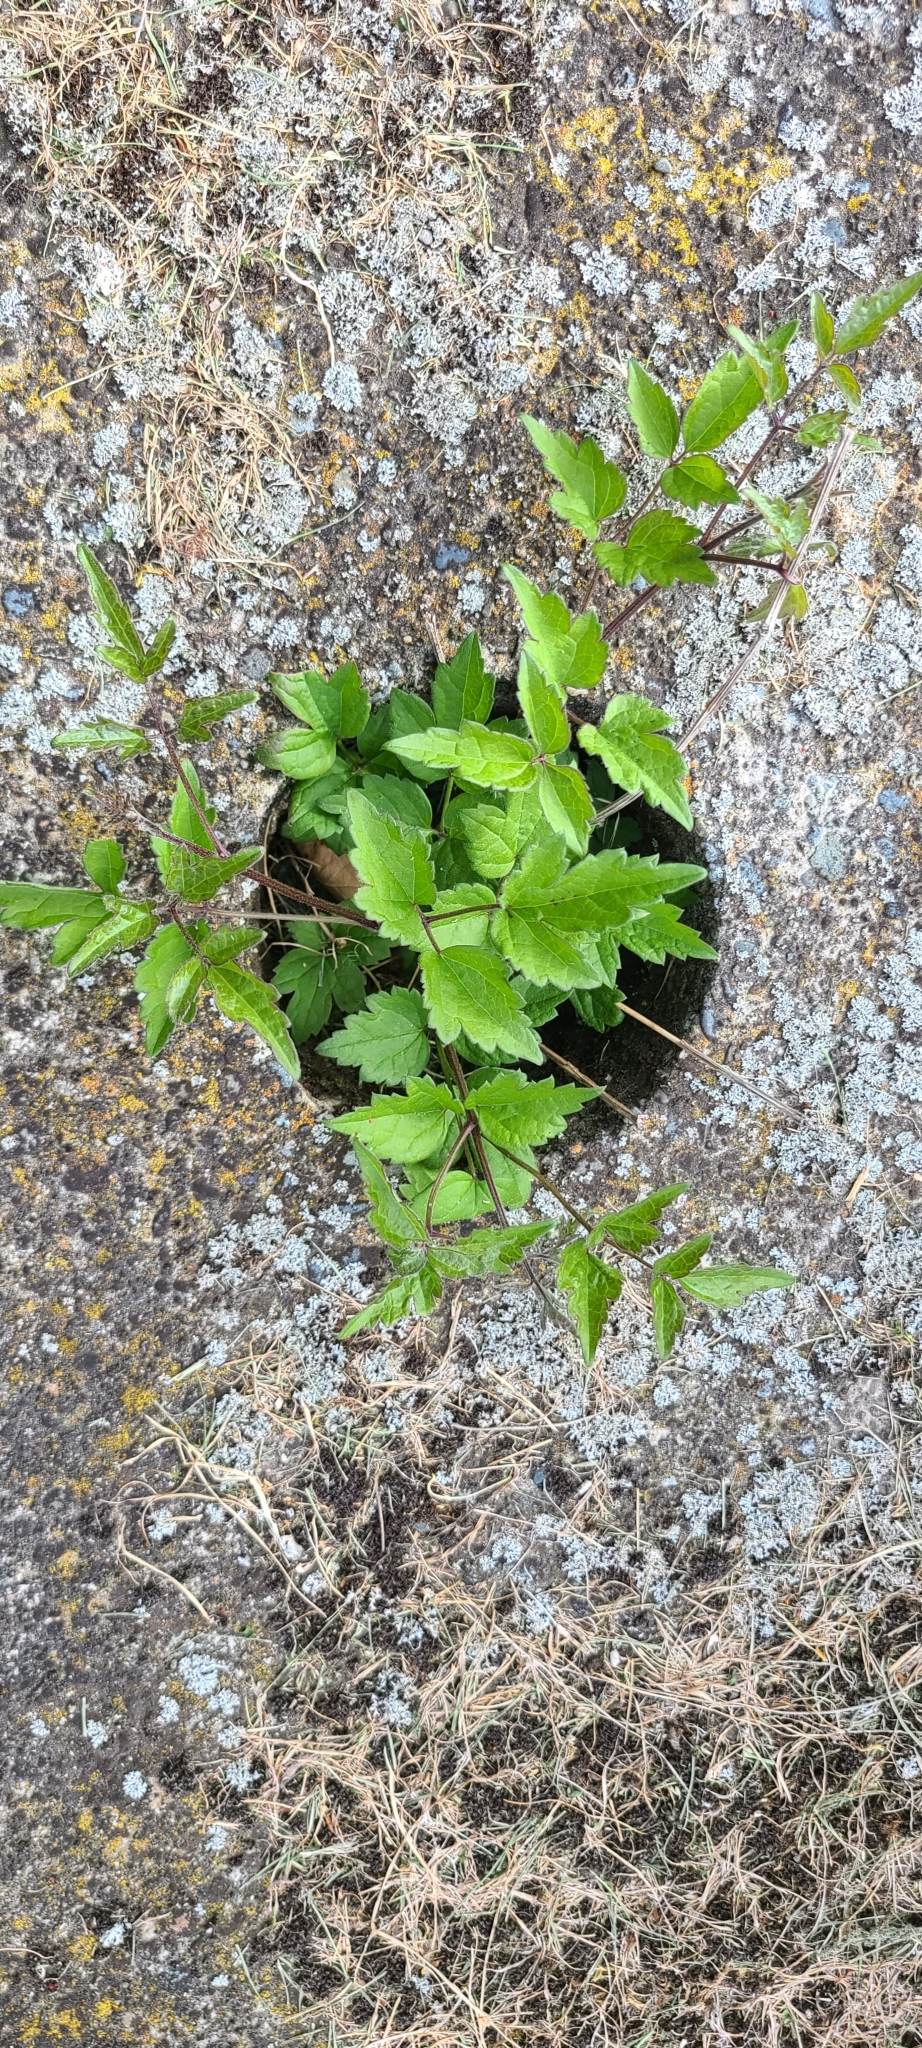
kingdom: Plantae
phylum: Tracheophyta
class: Magnoliopsida
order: Ranunculales
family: Ranunculaceae
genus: Clematis
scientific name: Clematis vitalba
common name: Evergreen clematis
